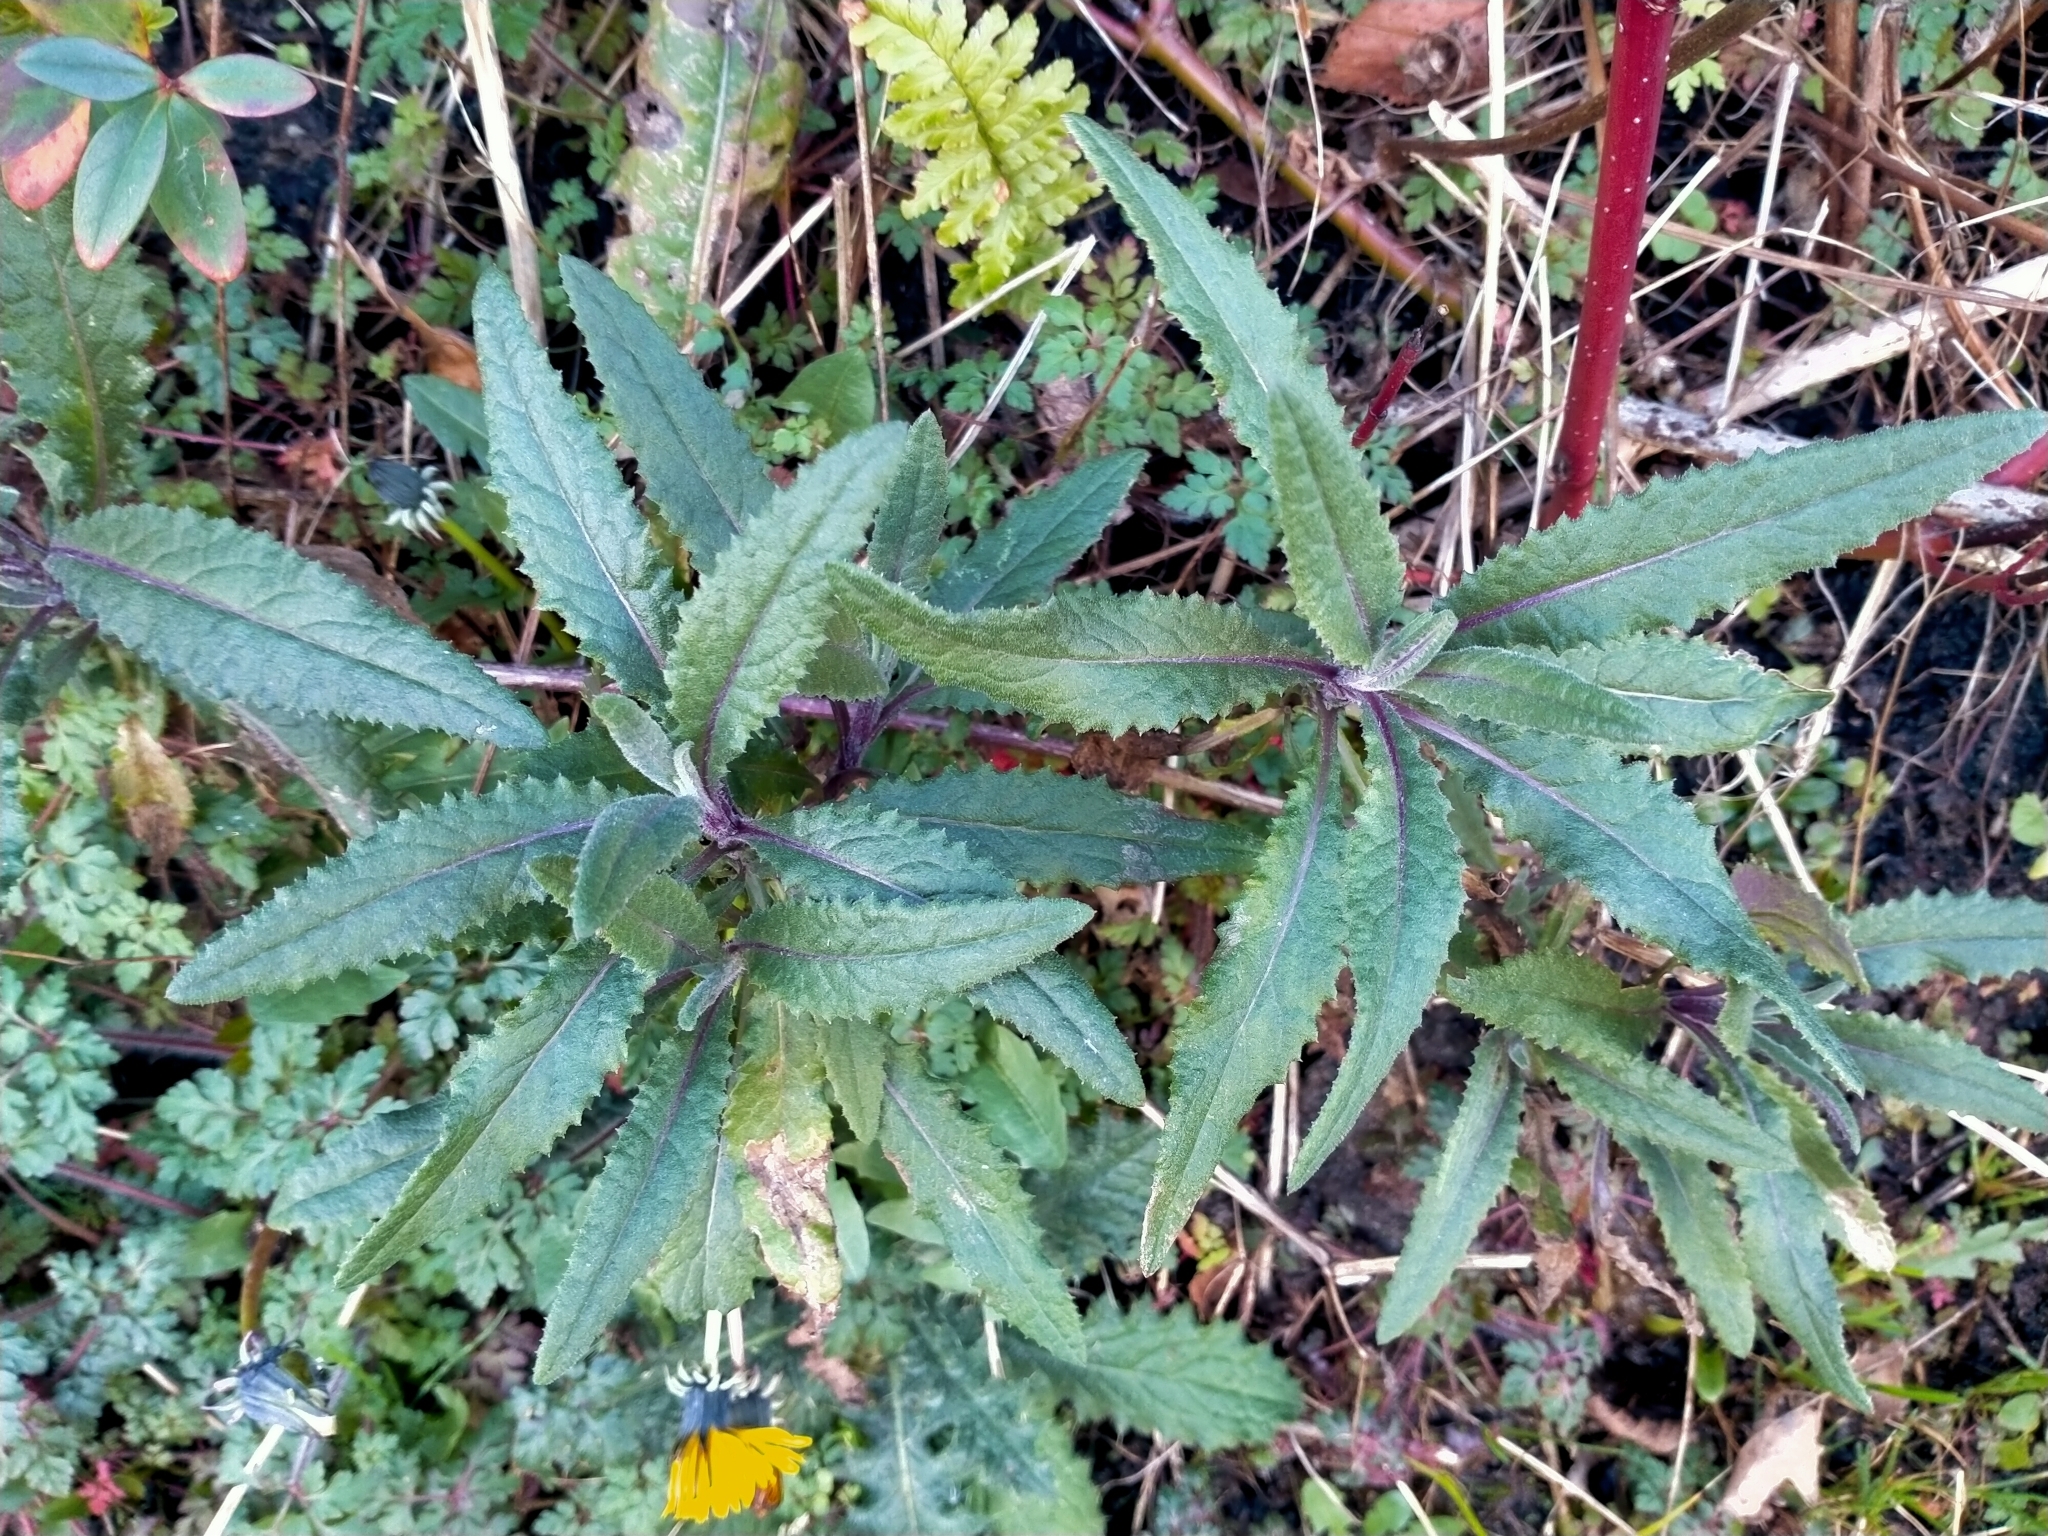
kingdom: Plantae
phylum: Tracheophyta
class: Magnoliopsida
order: Asterales
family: Asteraceae
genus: Senecio
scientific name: Senecio minimus
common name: Toothed fireweed
